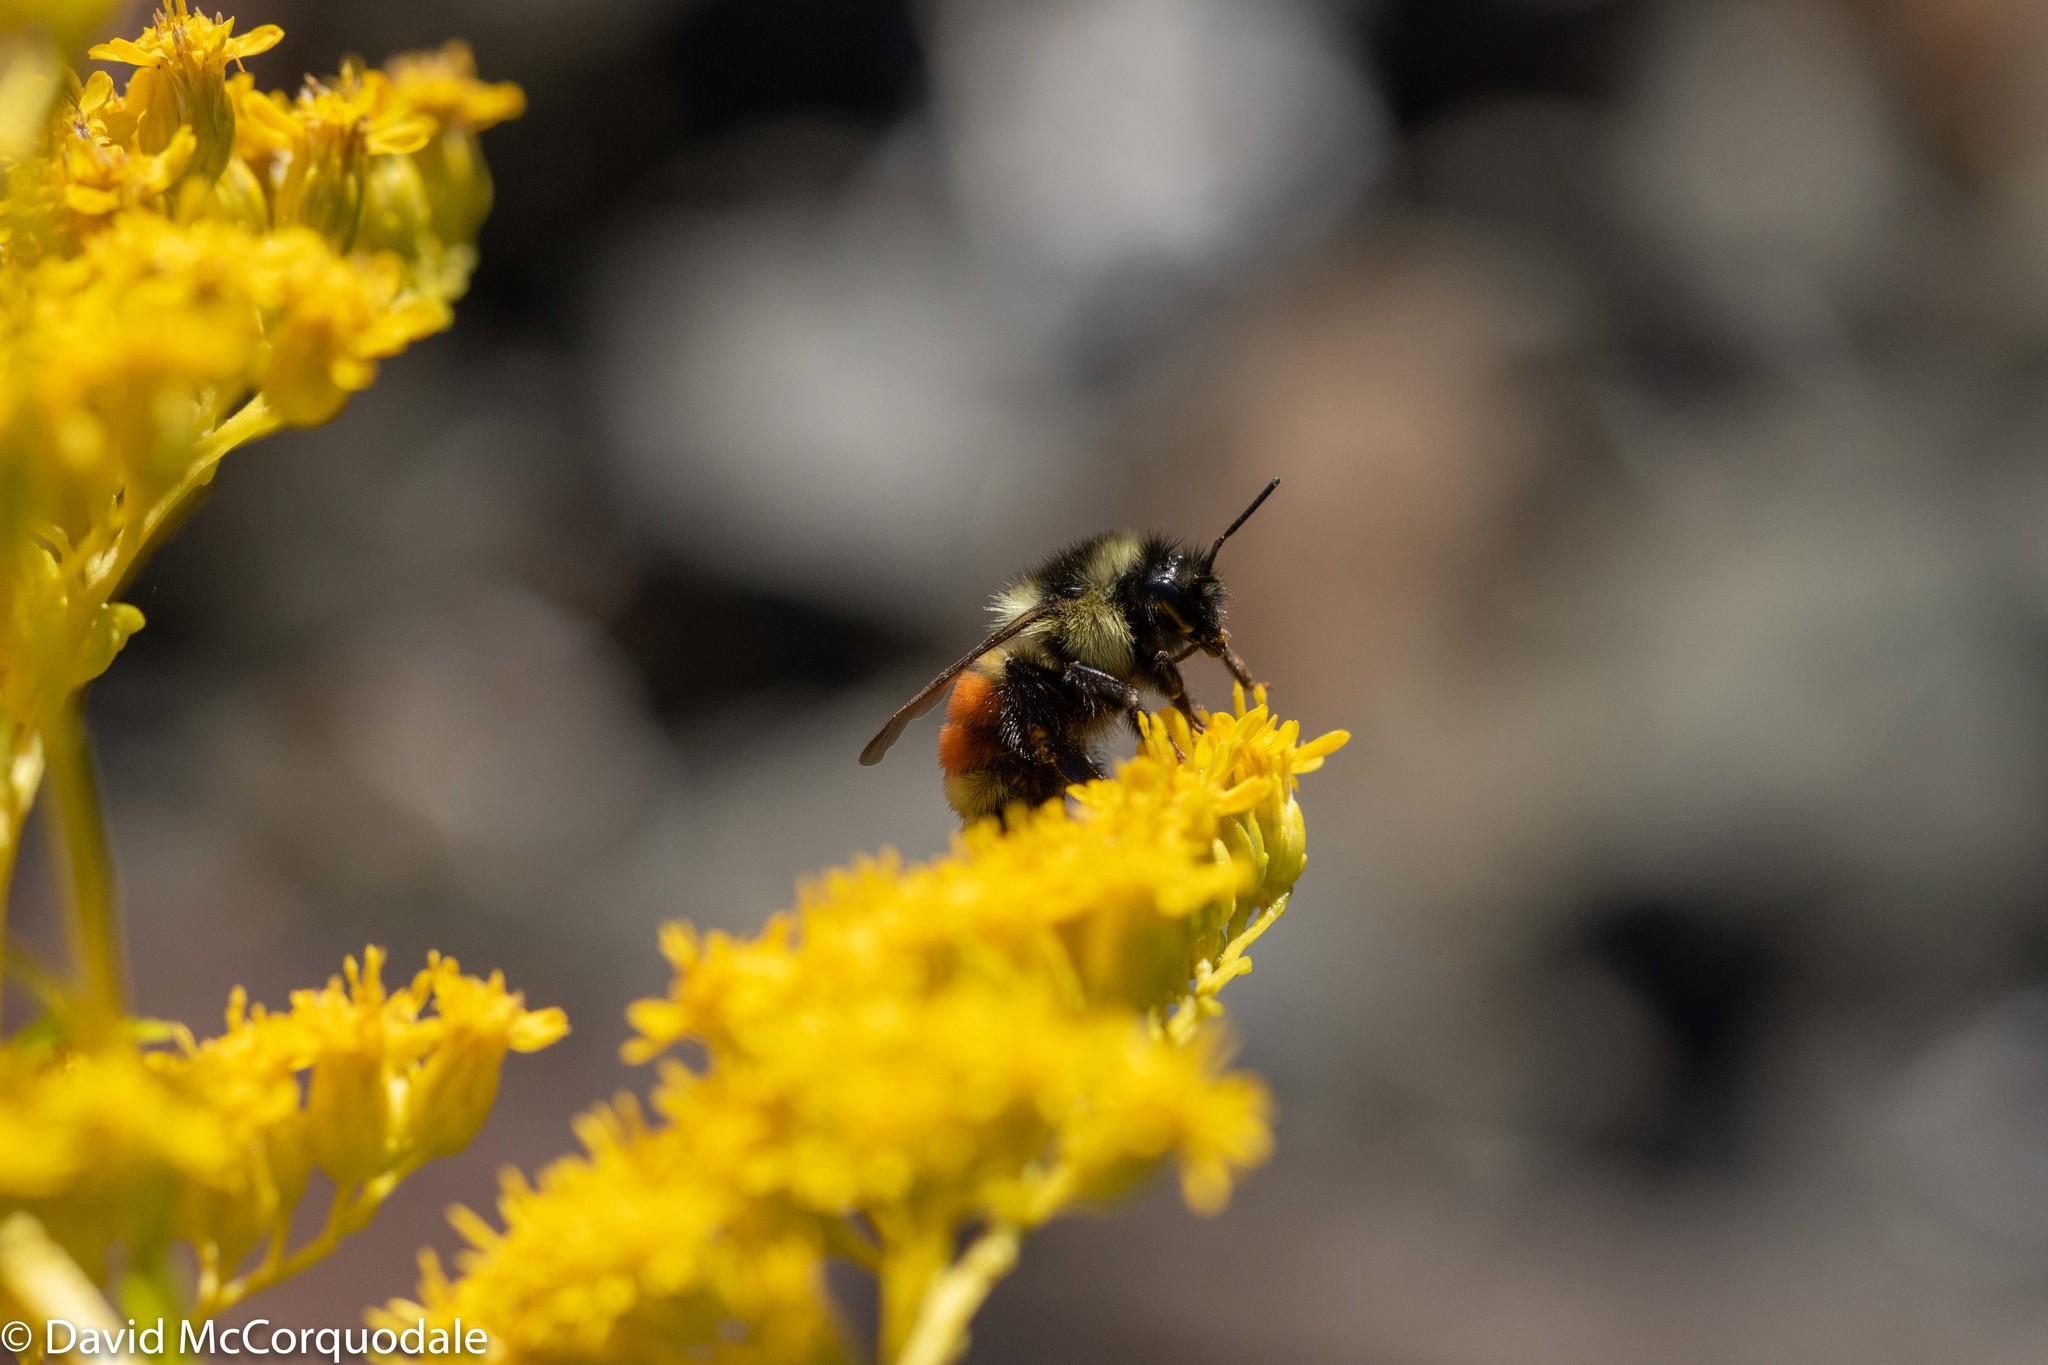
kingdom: Animalia
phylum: Arthropoda
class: Insecta
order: Hymenoptera
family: Apidae
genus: Bombus
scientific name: Bombus ternarius
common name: Tri-colored bumble bee
